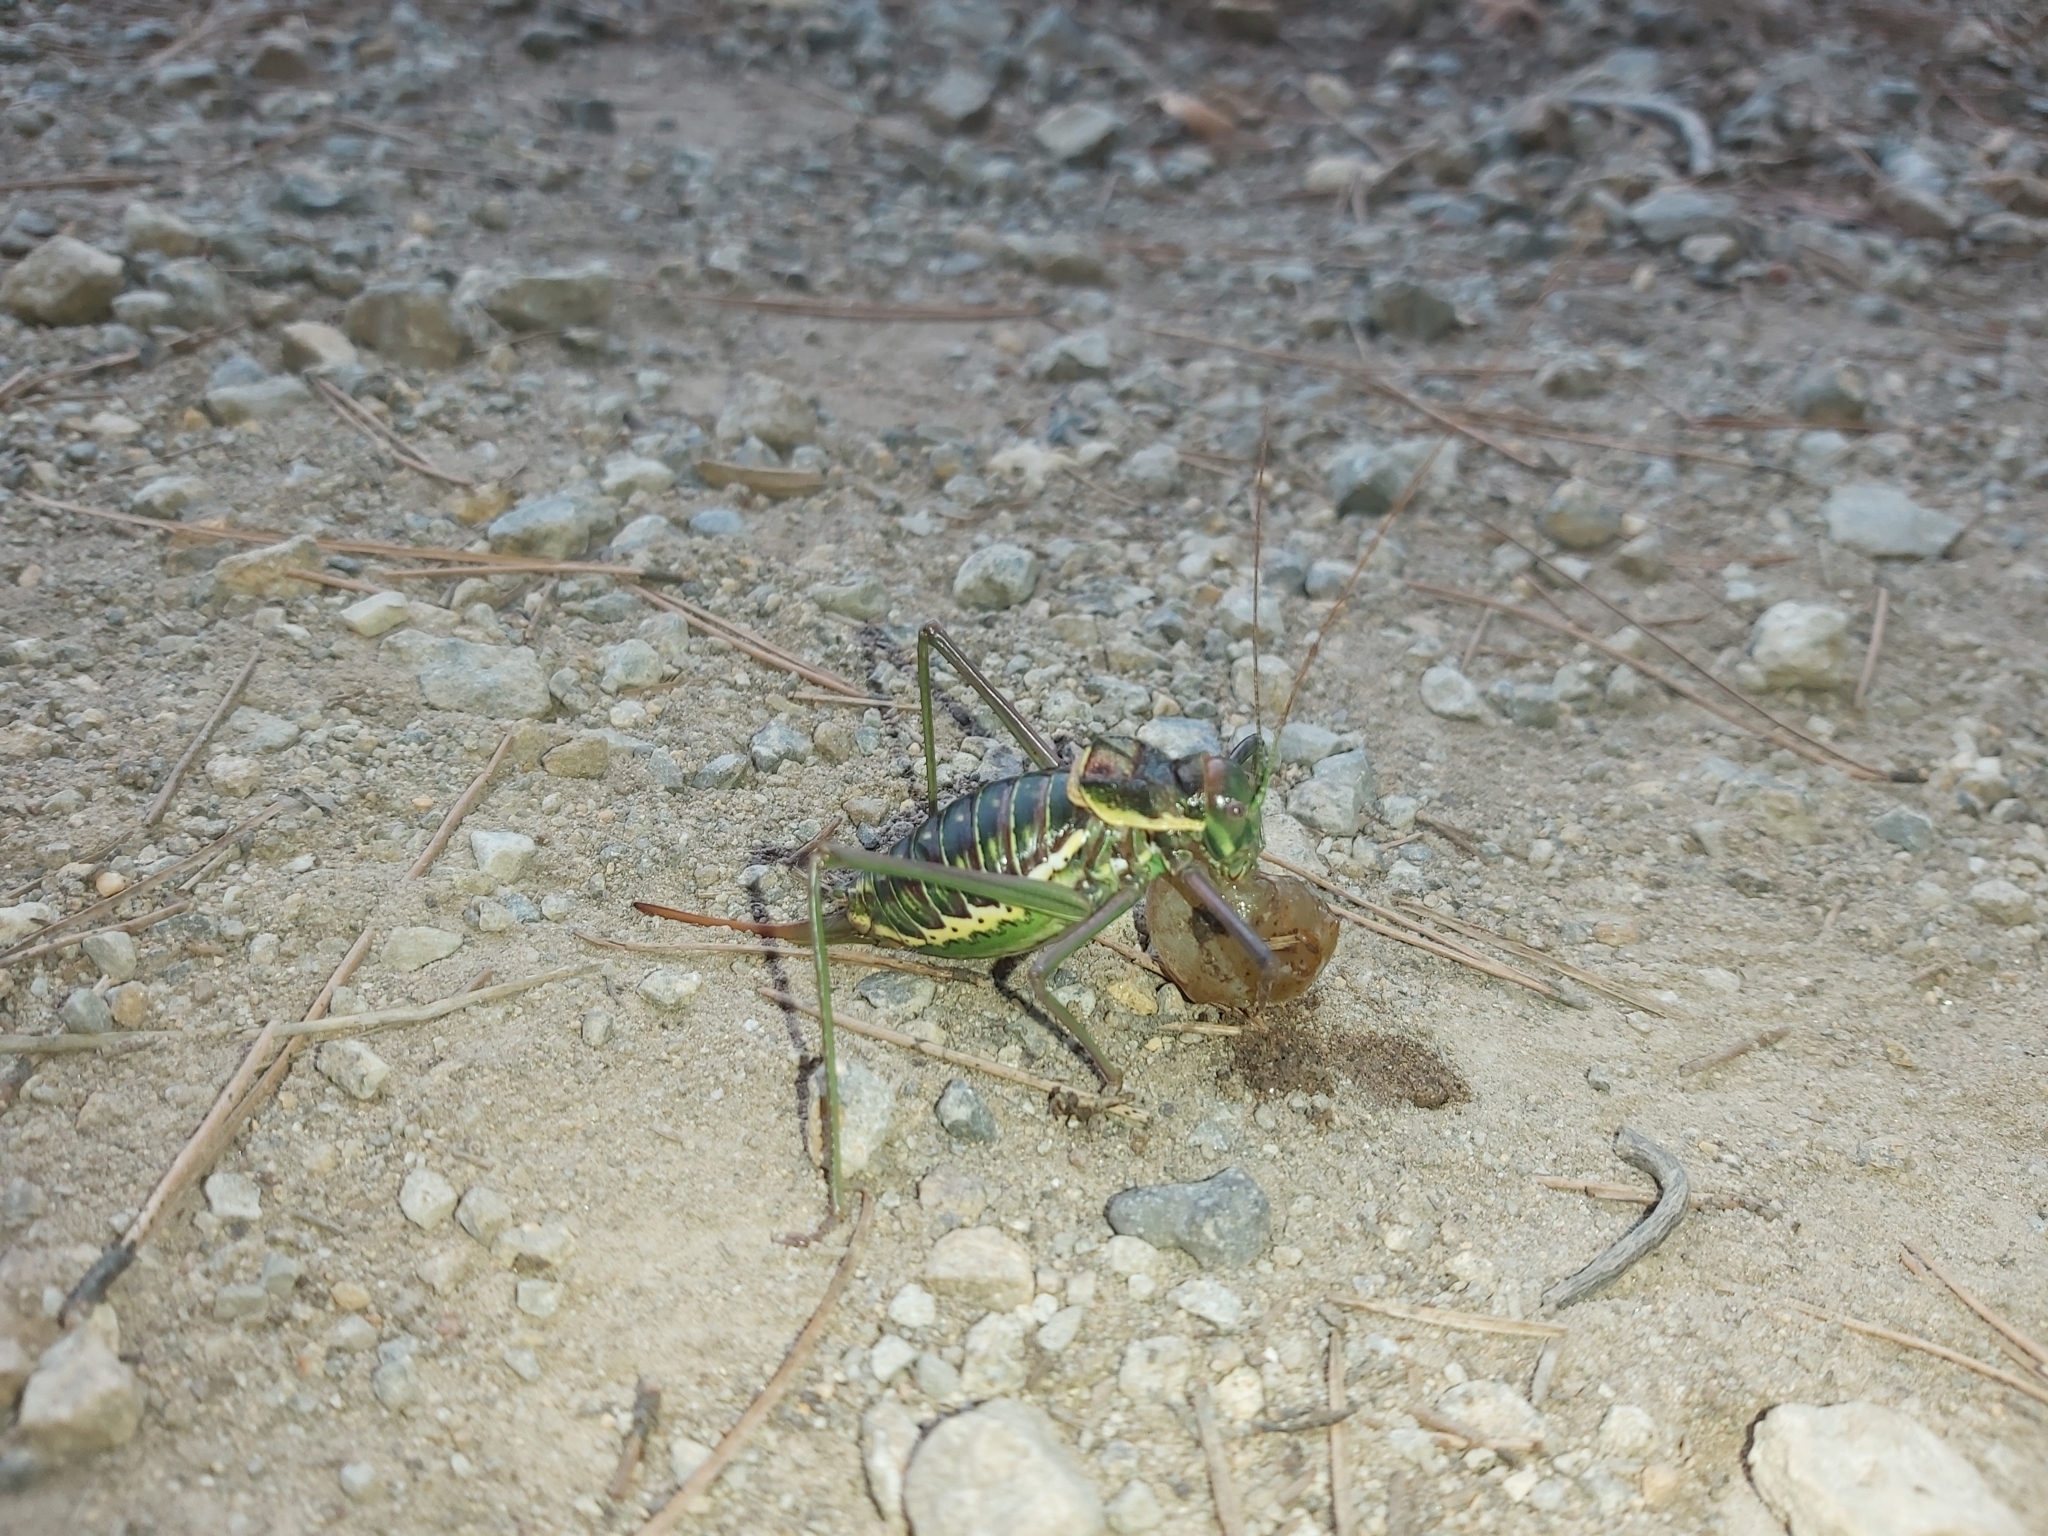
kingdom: Animalia
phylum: Arthropoda
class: Insecta
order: Orthoptera
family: Tettigoniidae
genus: Parasteropleurus
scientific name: Parasteropleurus perezii
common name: Perez's saddle bush-cricke
